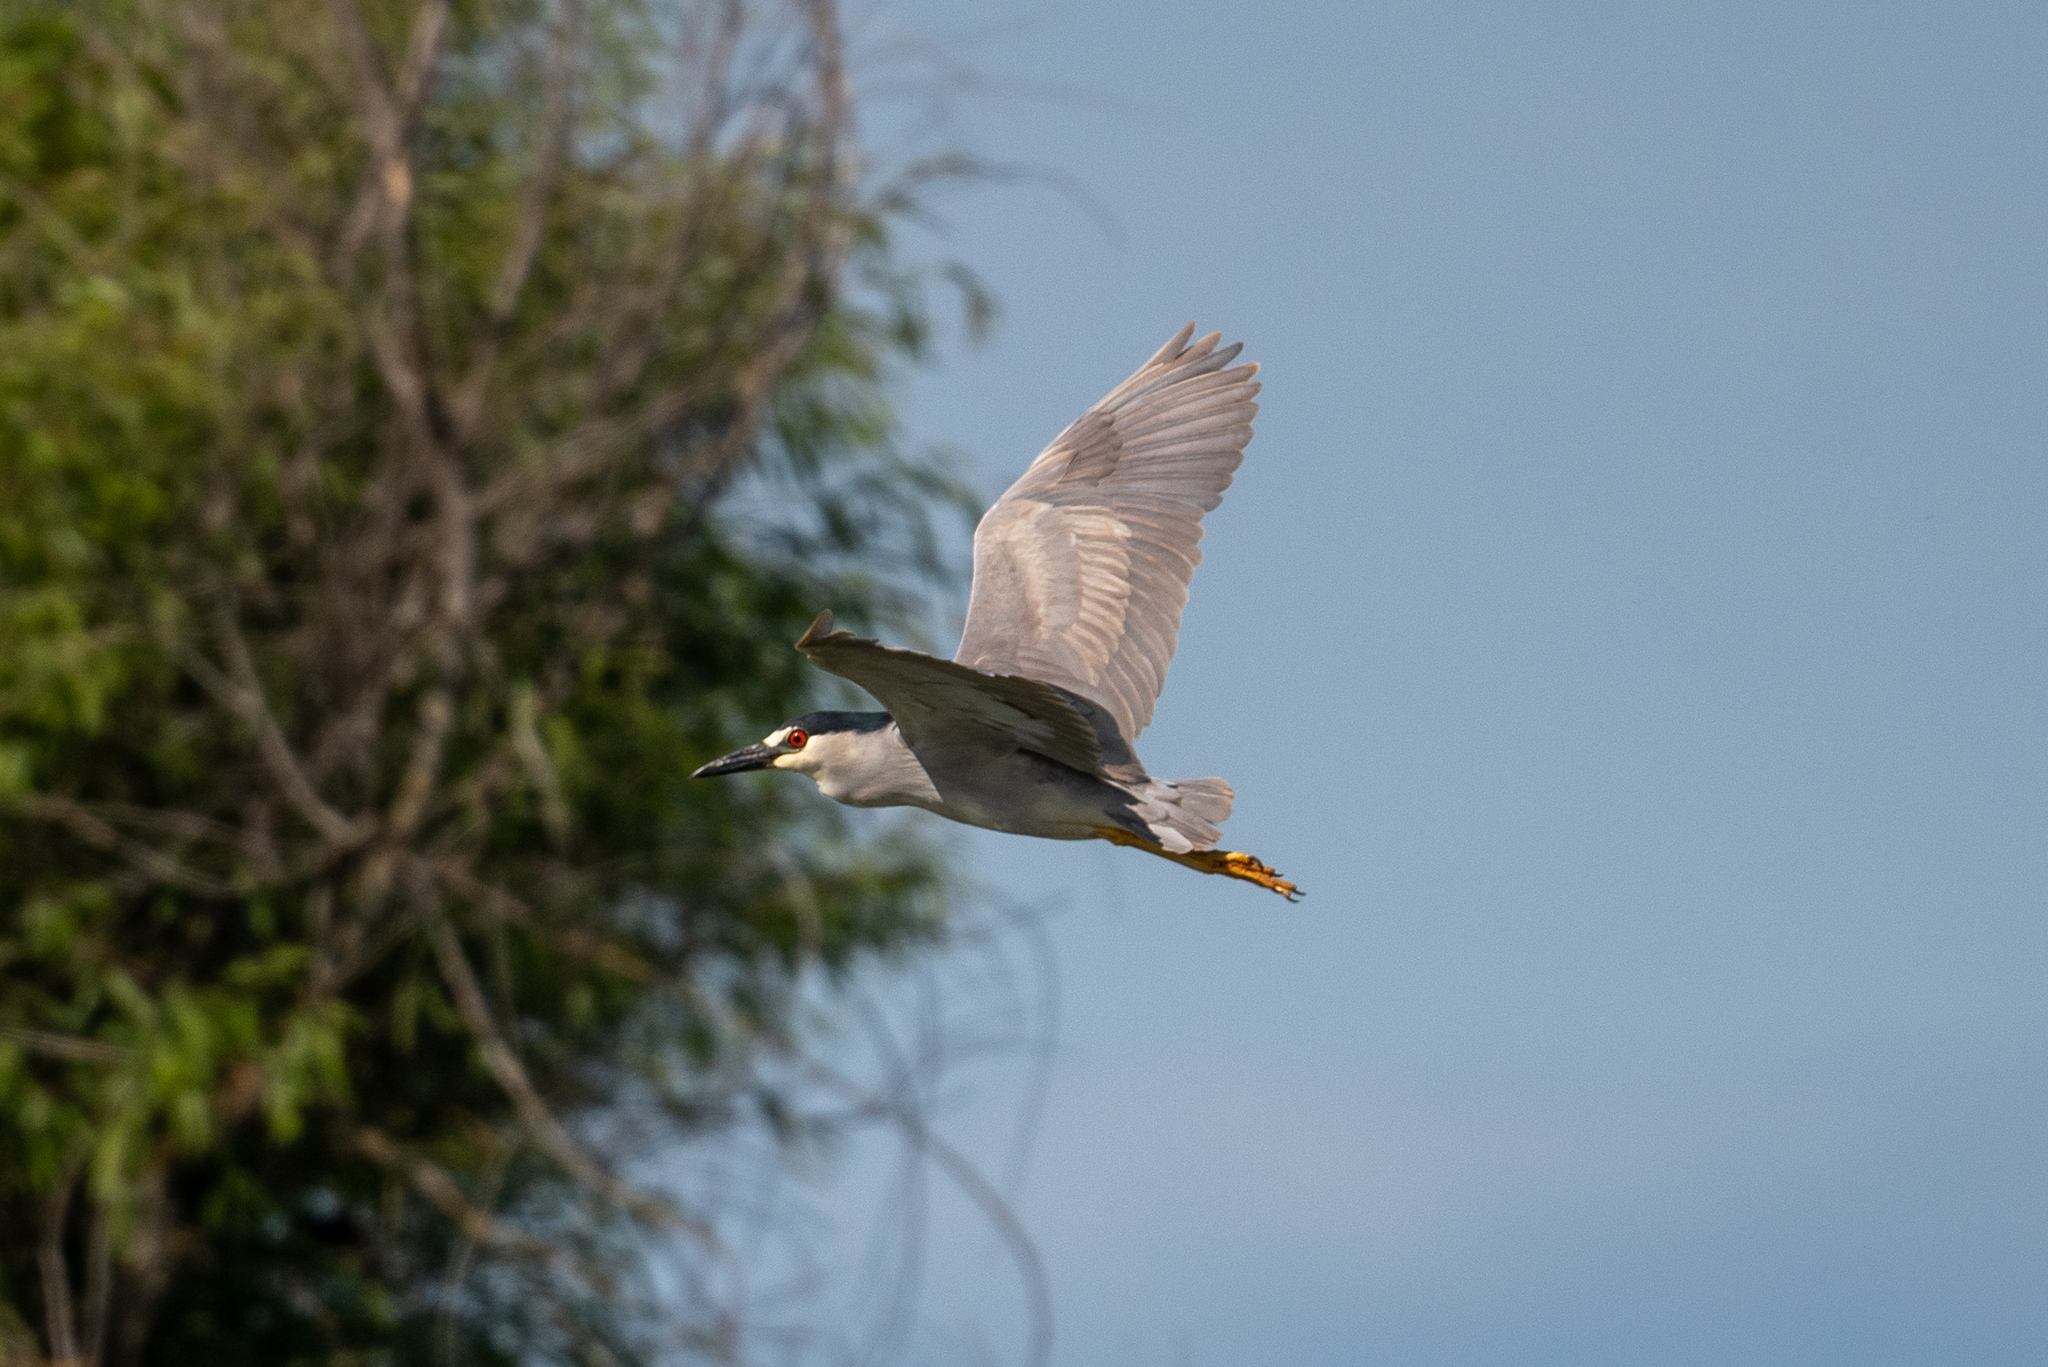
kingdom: Animalia
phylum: Chordata
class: Aves
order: Pelecaniformes
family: Ardeidae
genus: Nycticorax
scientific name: Nycticorax nycticorax
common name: Black-crowned night heron
